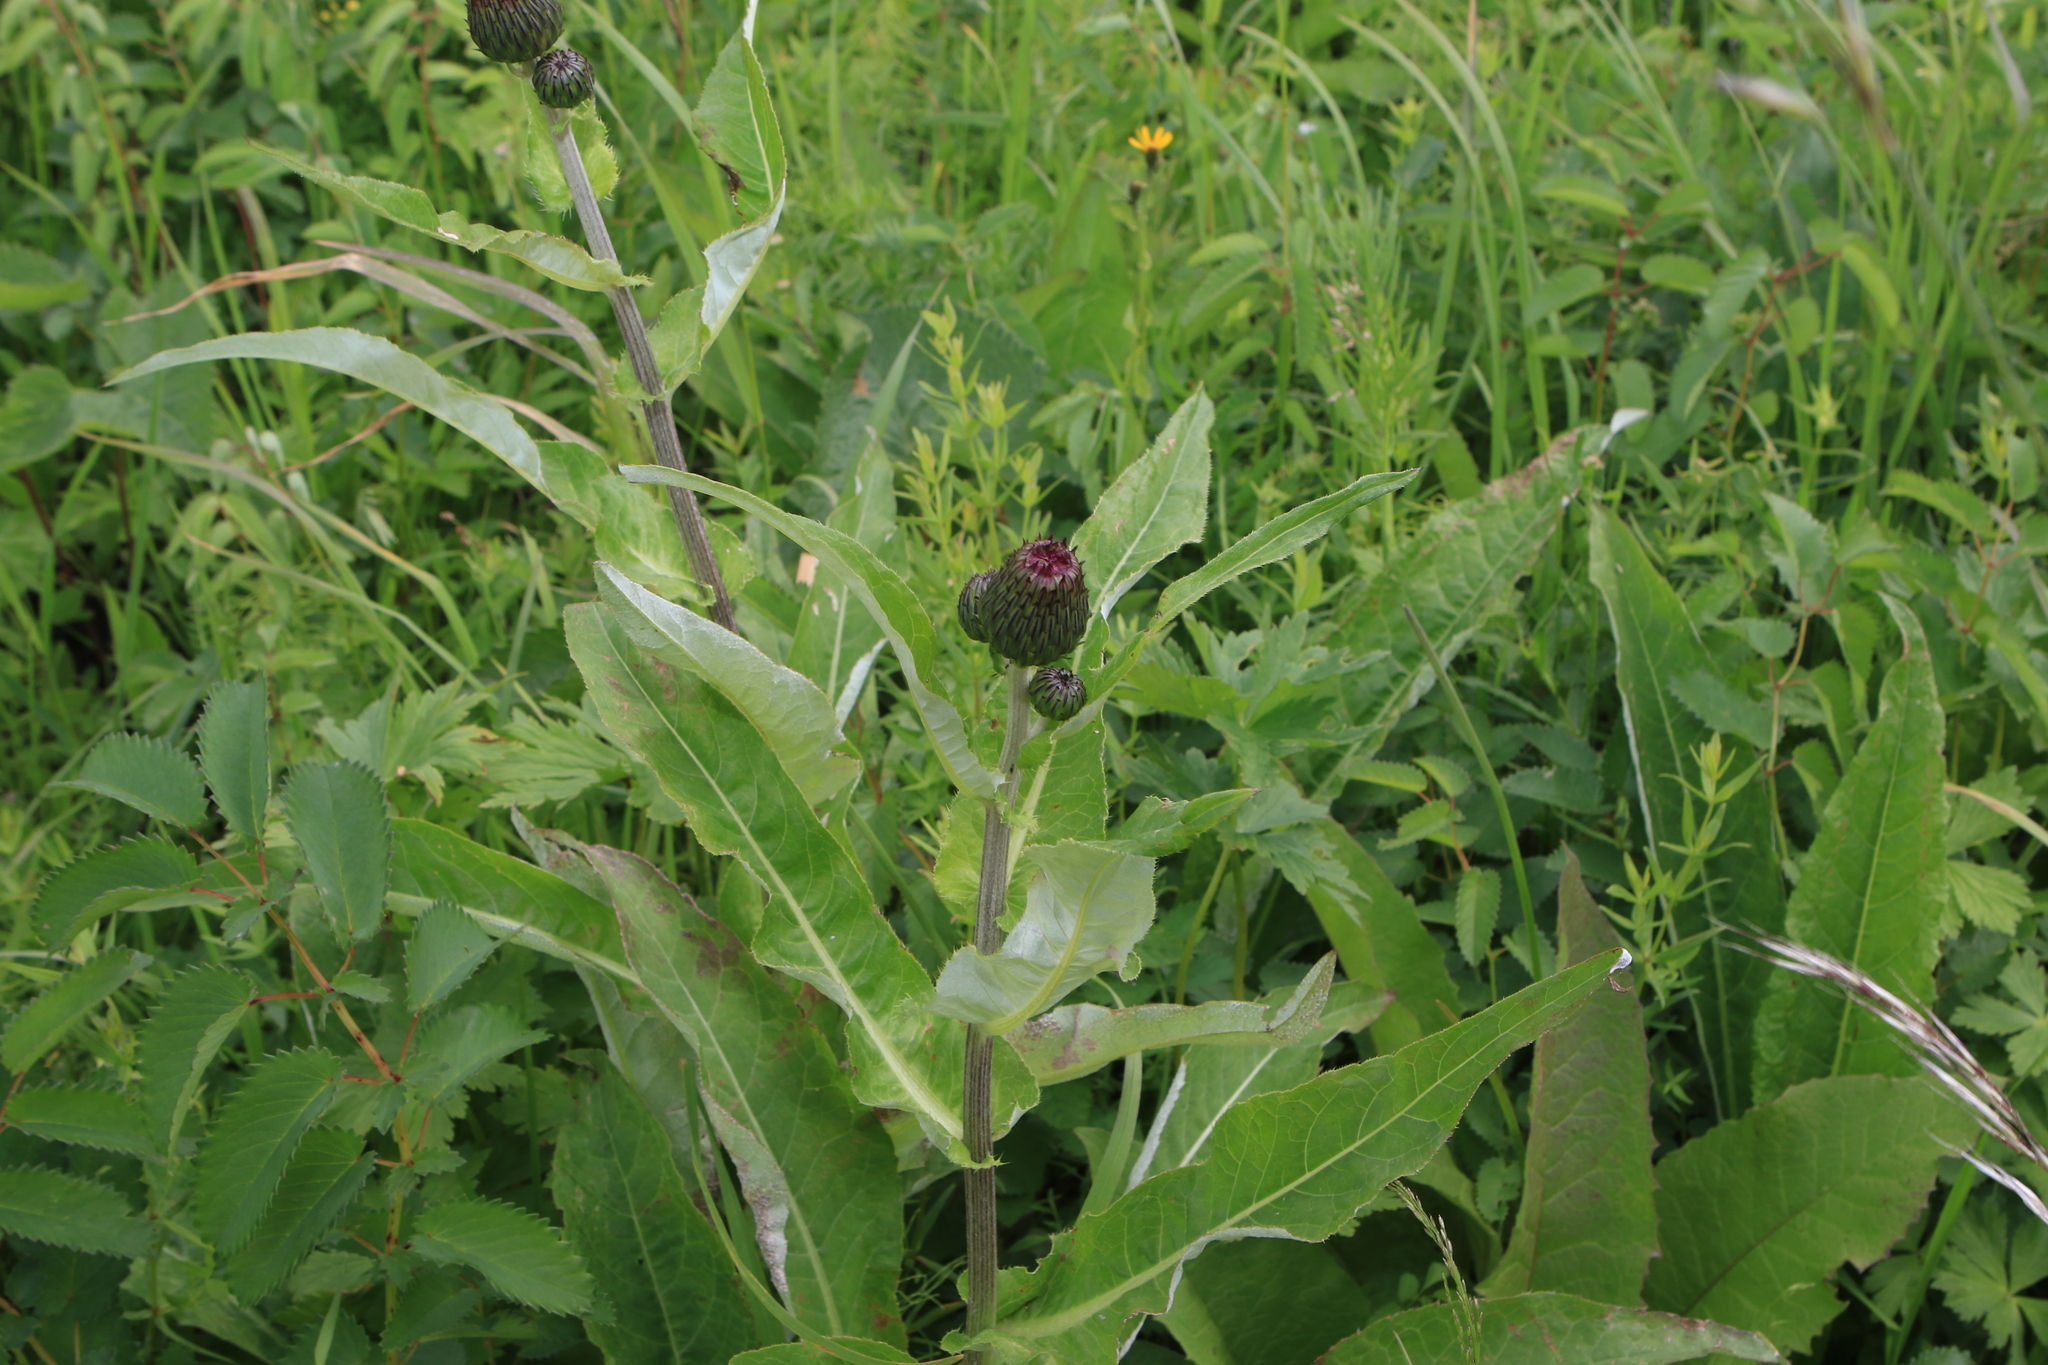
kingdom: Plantae
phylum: Tracheophyta
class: Magnoliopsida
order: Asterales
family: Asteraceae
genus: Cirsium
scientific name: Cirsium heterophyllum
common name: Melancholy thistle
